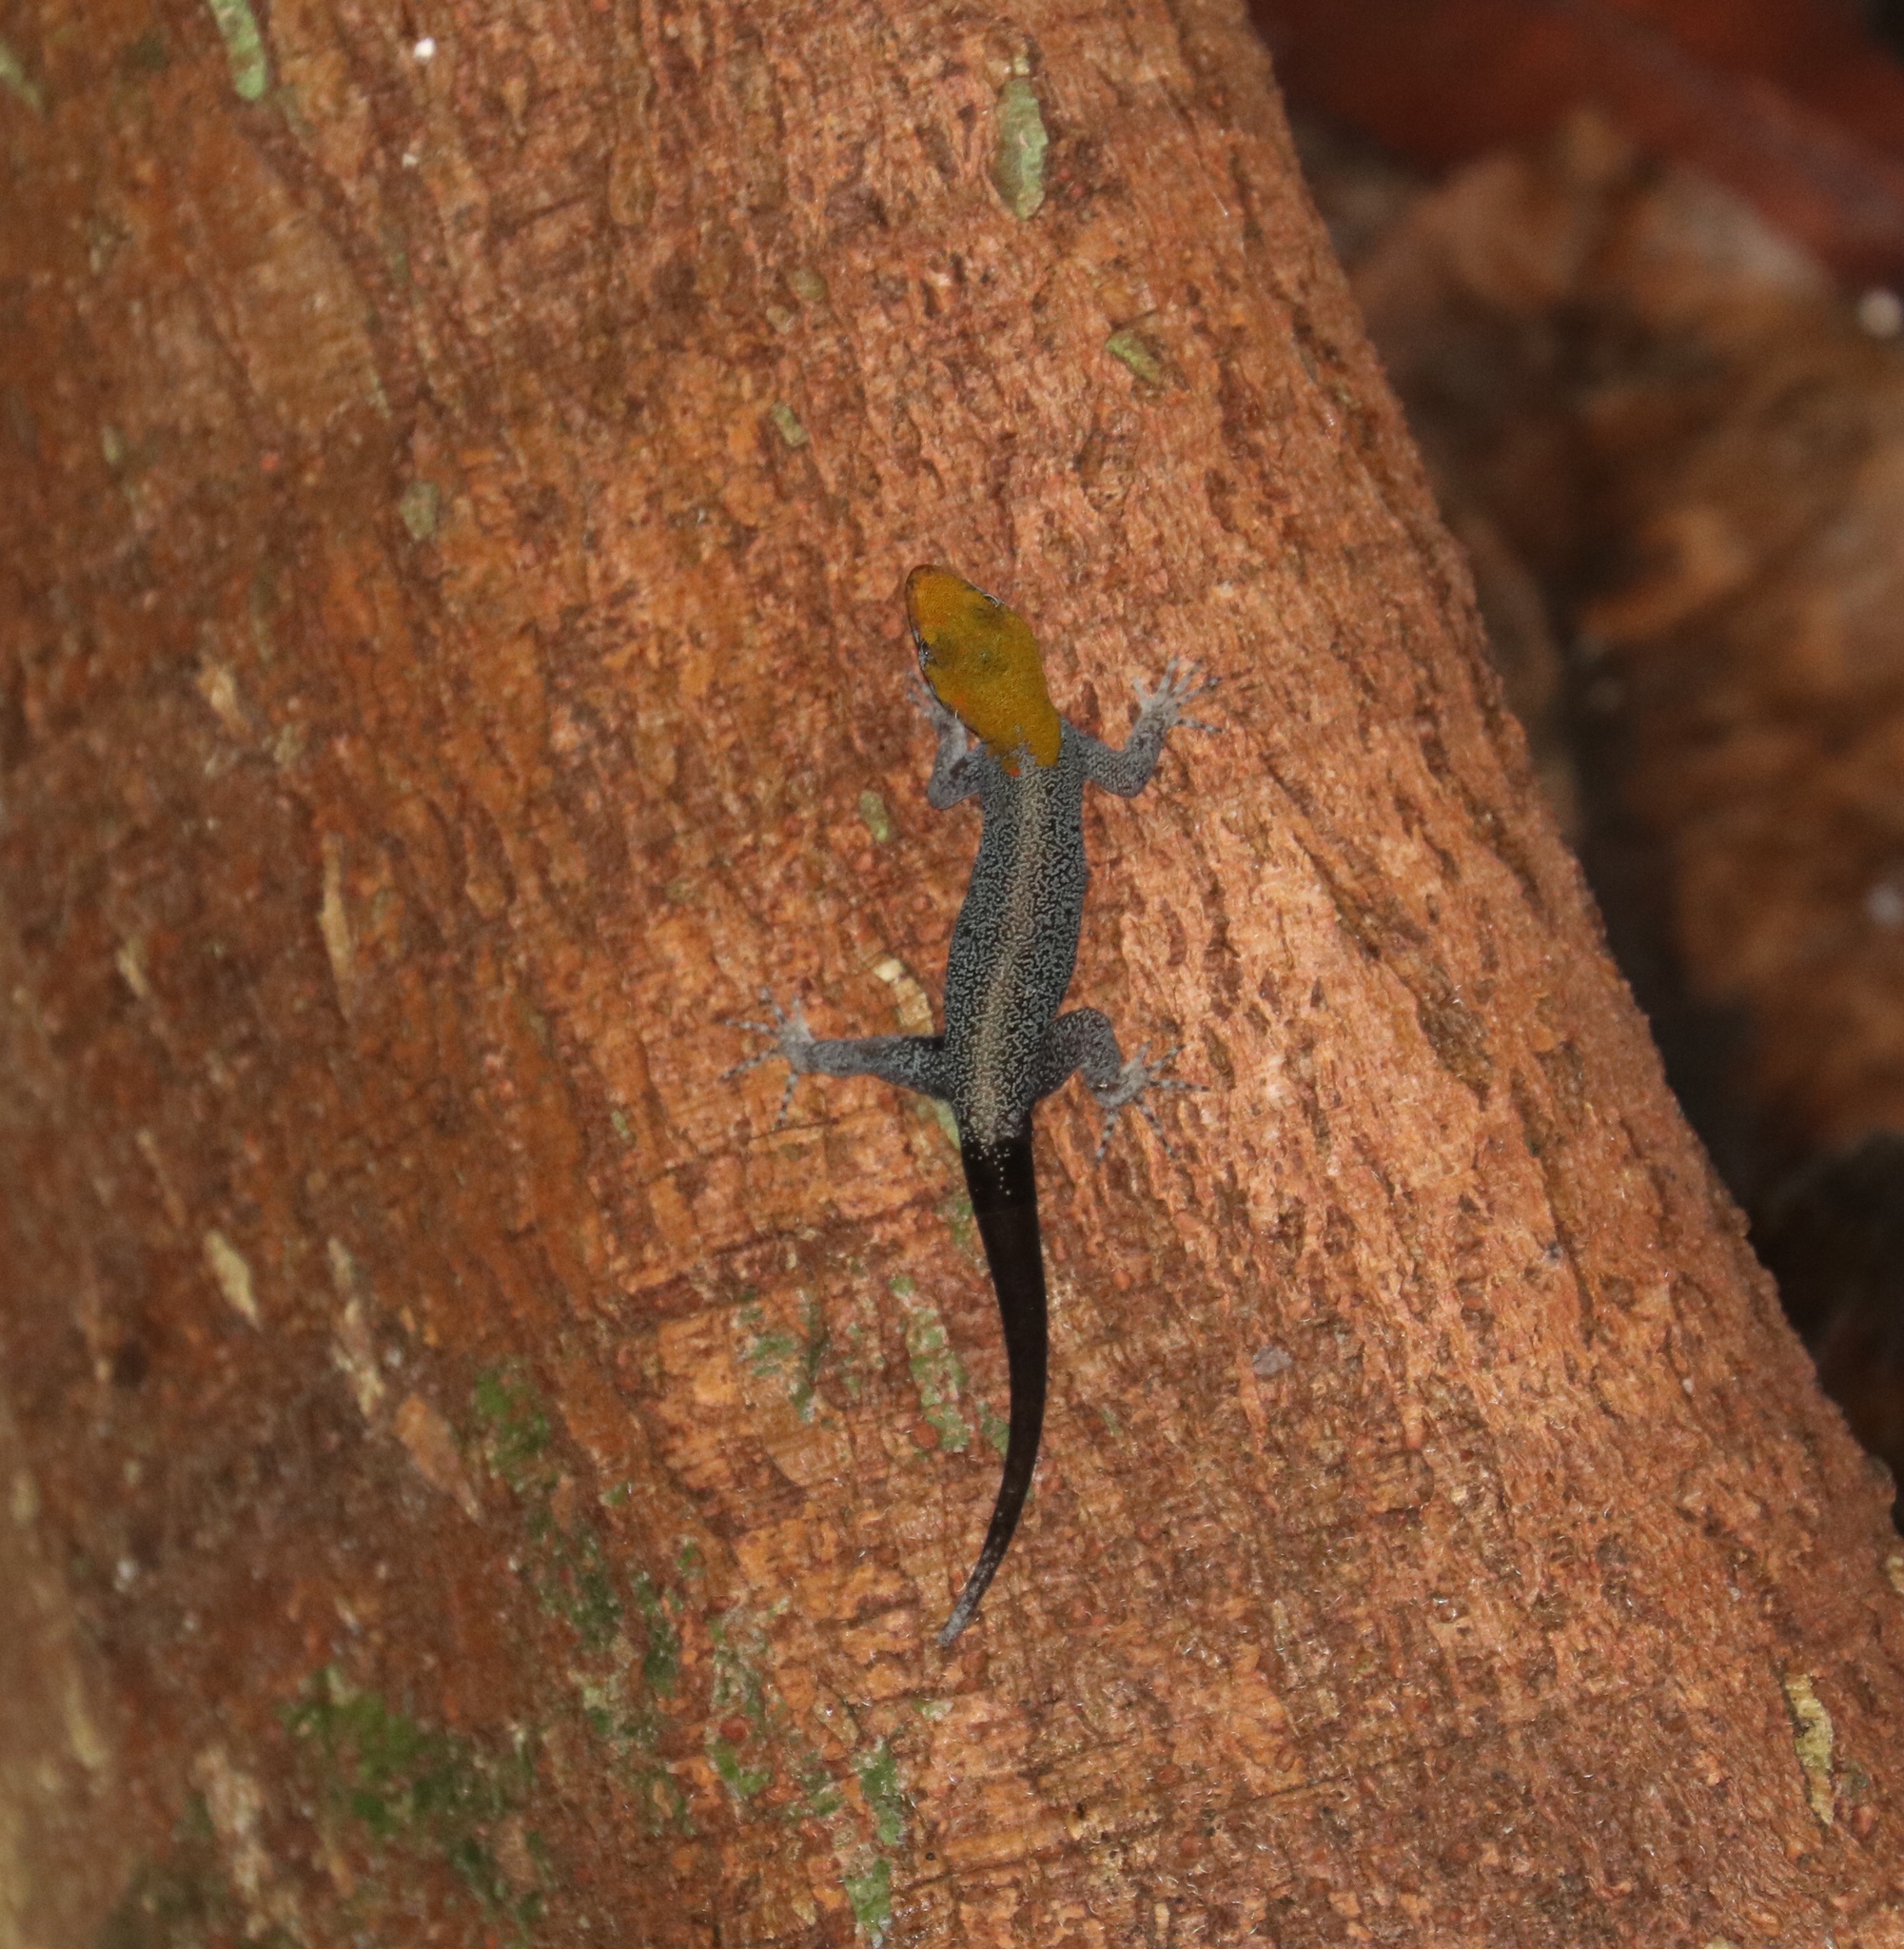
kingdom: Animalia
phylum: Chordata
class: Squamata
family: Sphaerodactylidae
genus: Gonatodes
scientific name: Gonatodes albogularis
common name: Yellow-headed gecko
